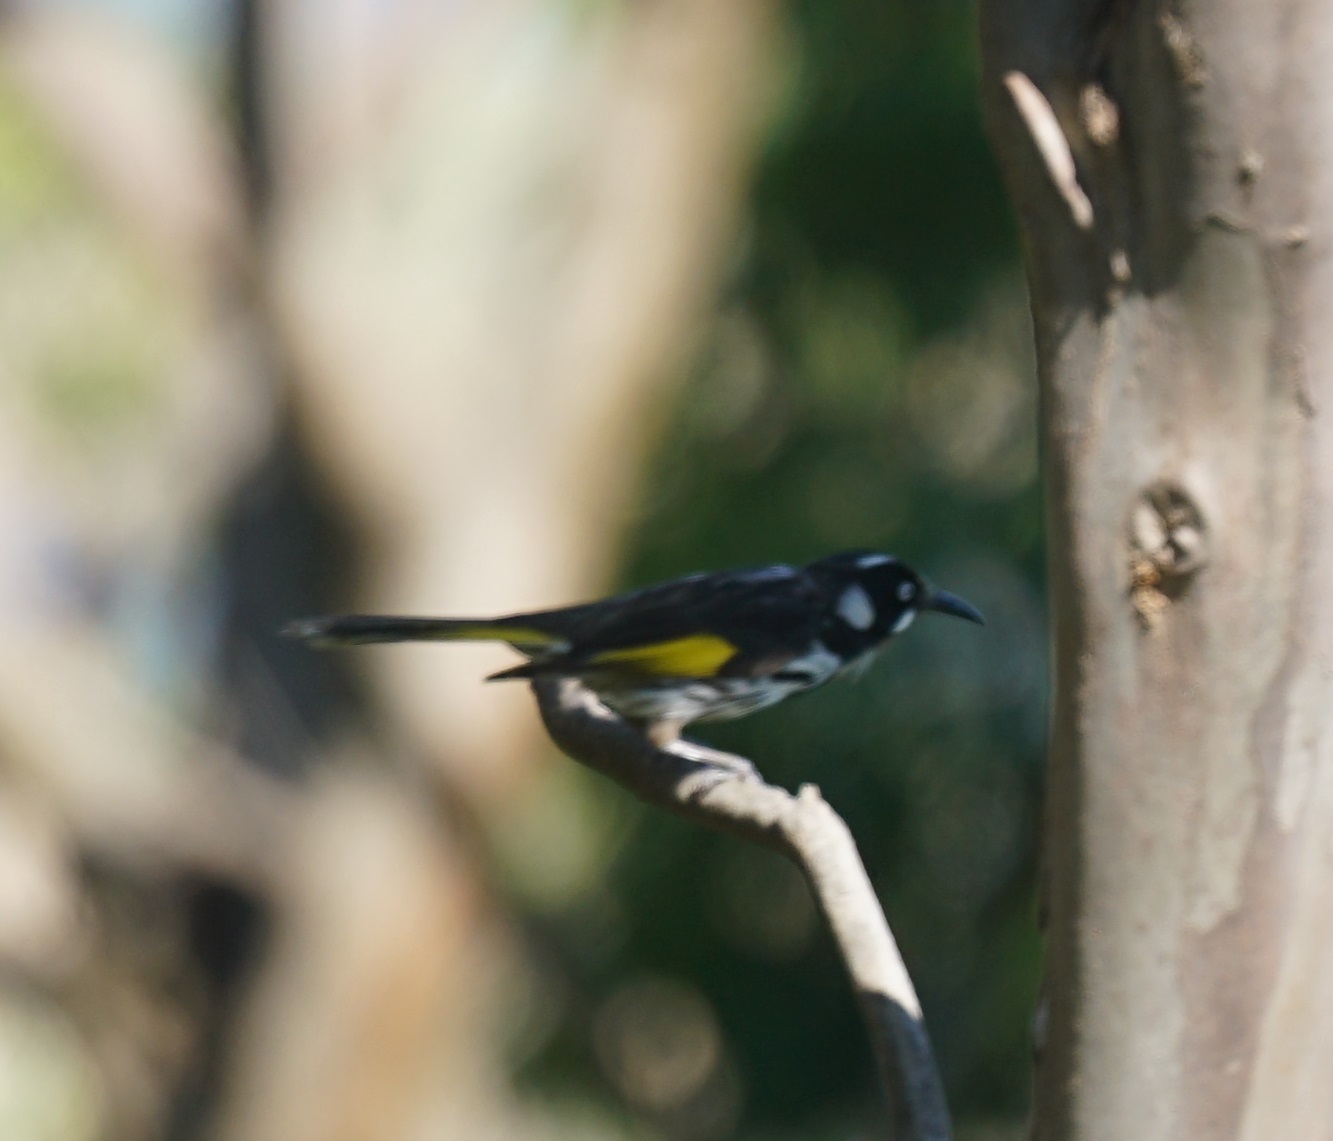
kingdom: Animalia
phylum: Chordata
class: Aves
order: Passeriformes
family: Meliphagidae
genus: Phylidonyris
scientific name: Phylidonyris novaehollandiae
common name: New holland honeyeater
